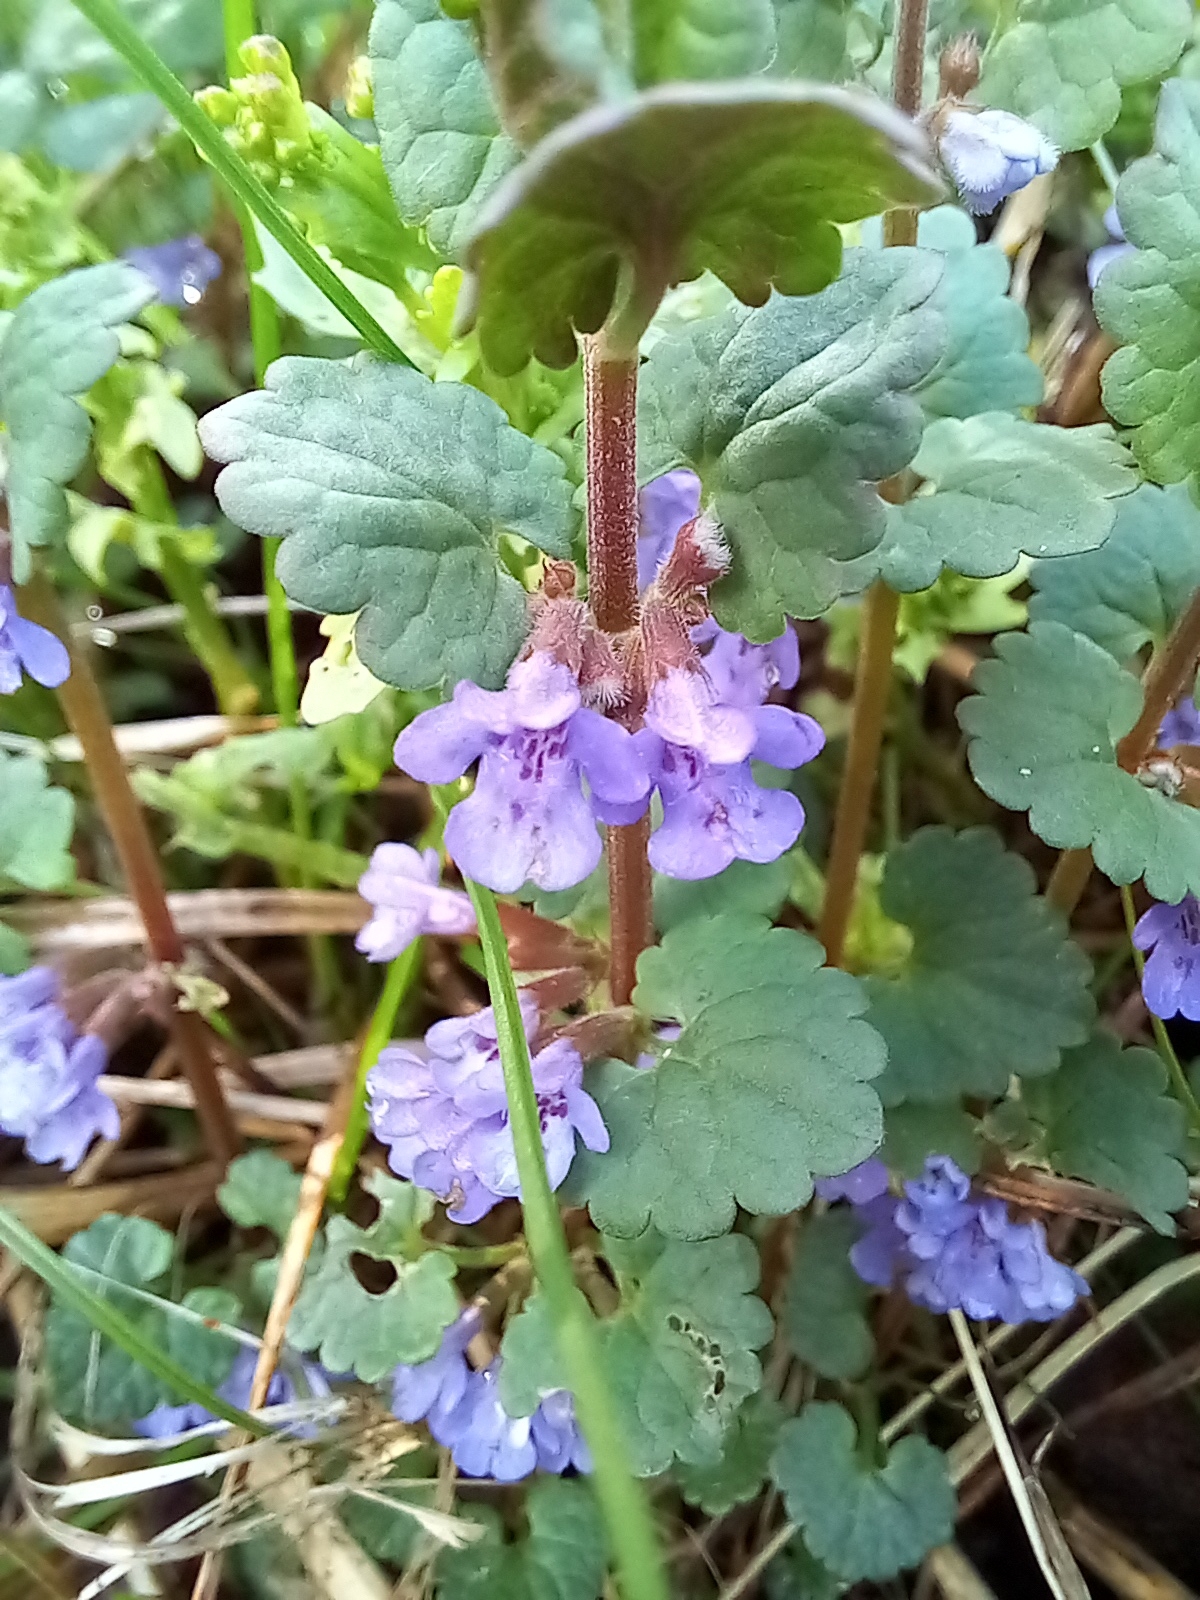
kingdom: Plantae
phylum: Tracheophyta
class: Magnoliopsida
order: Lamiales
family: Lamiaceae
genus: Glechoma
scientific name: Glechoma hederacea
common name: Ground ivy
